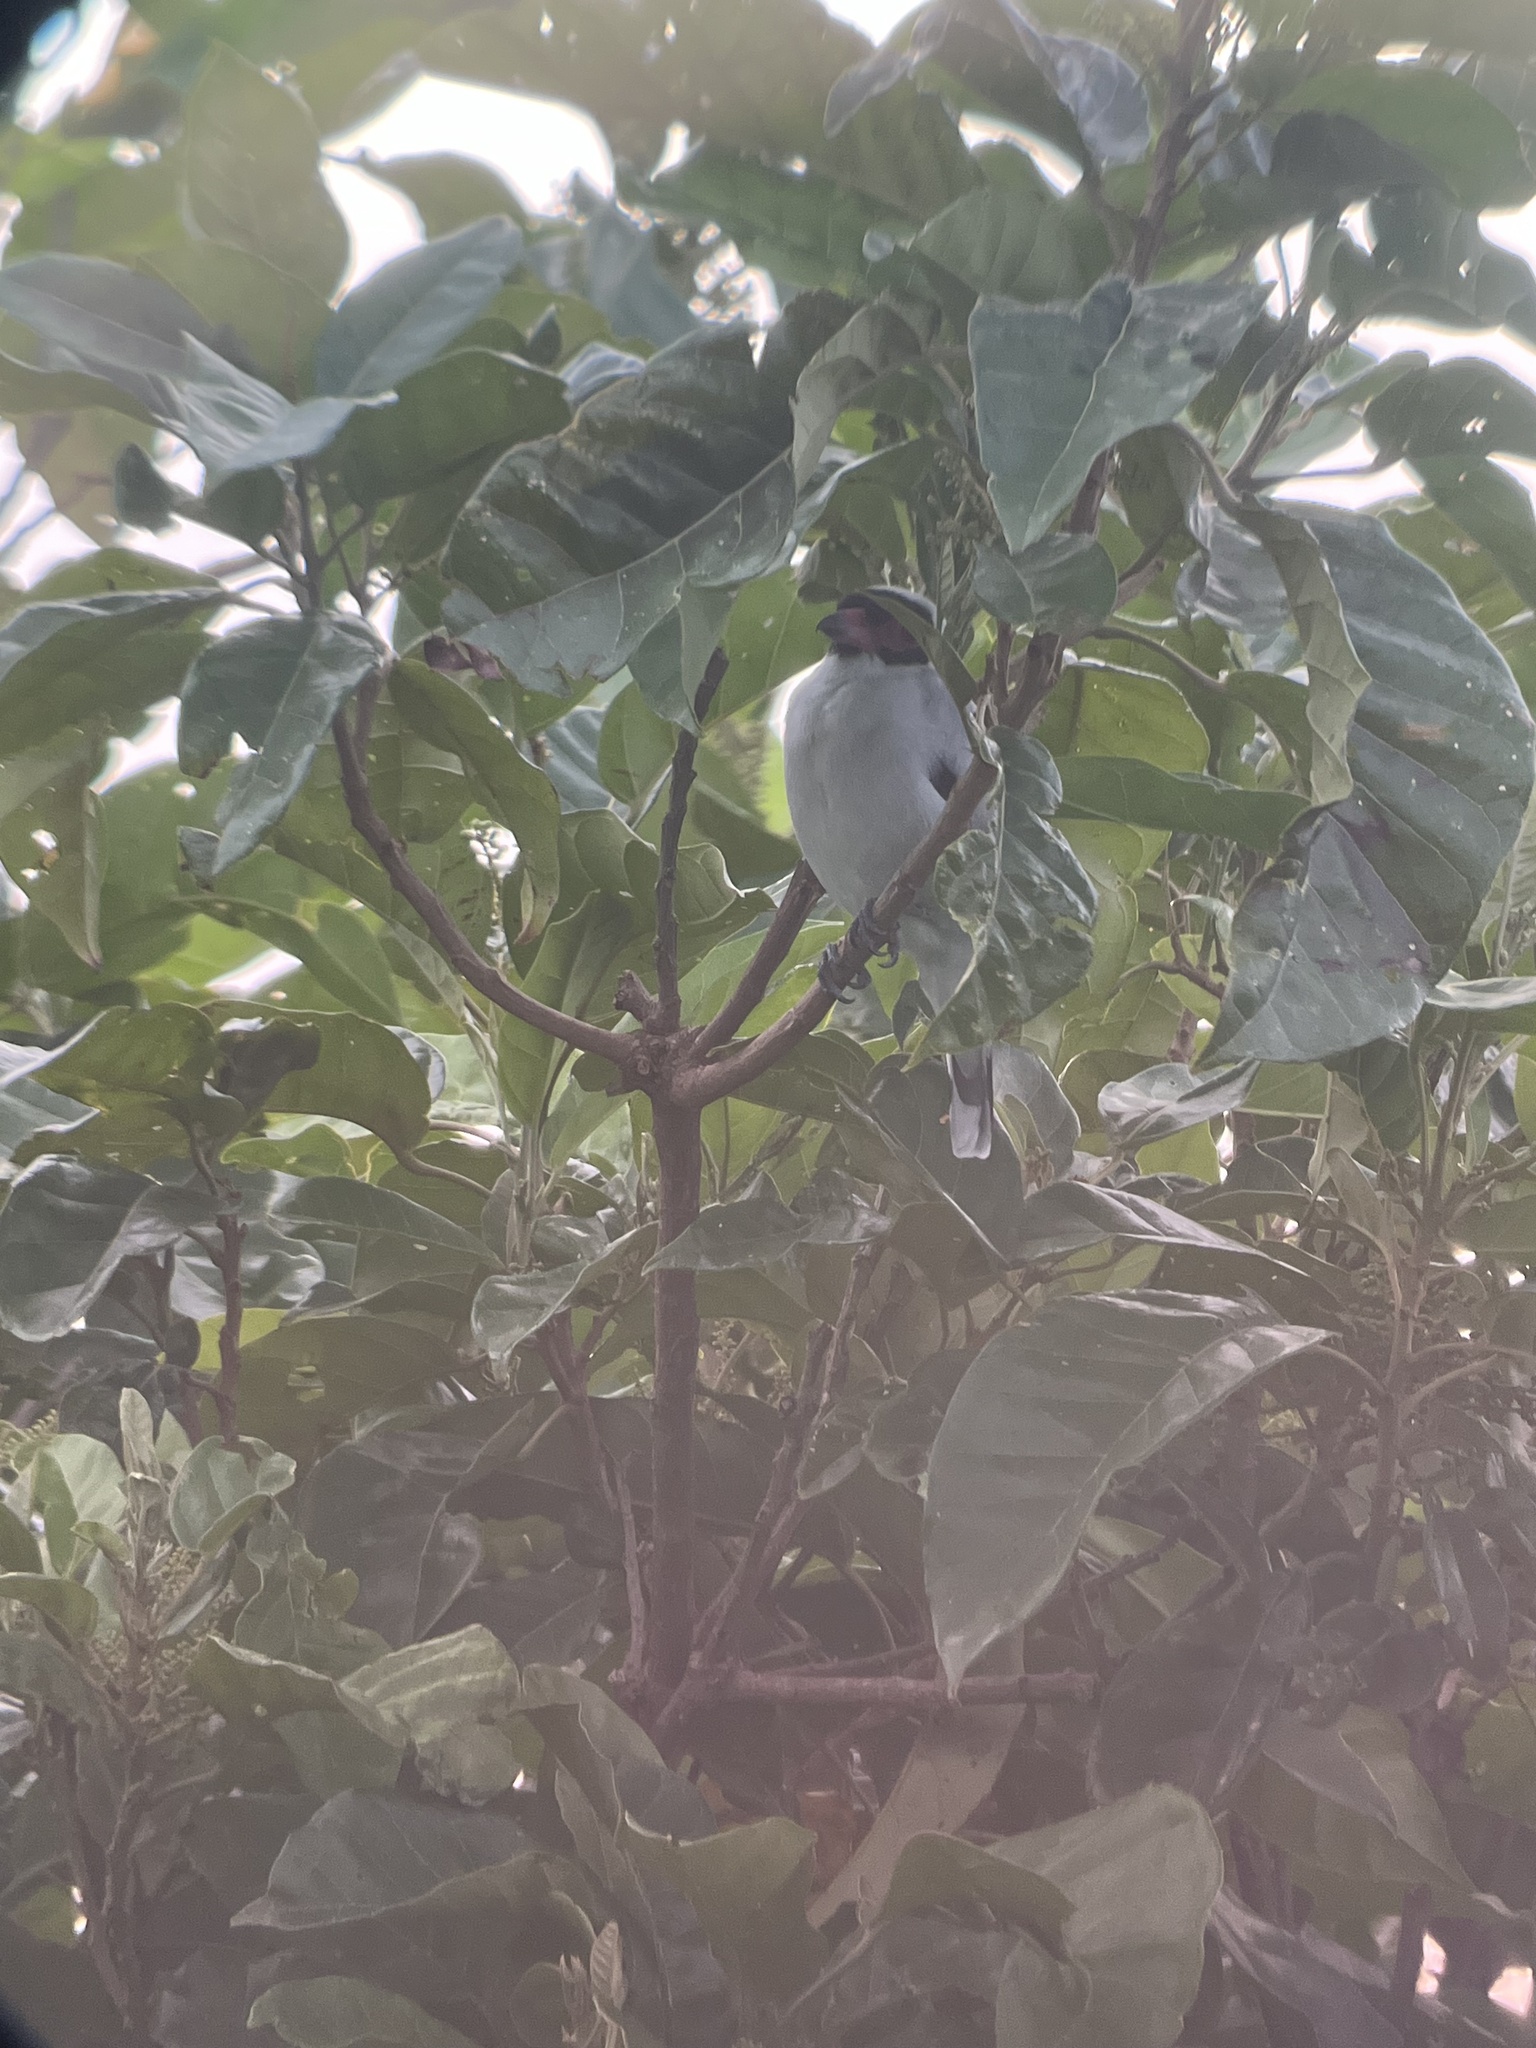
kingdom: Animalia
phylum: Chordata
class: Aves
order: Passeriformes
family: Cotingidae
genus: Tityra
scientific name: Tityra semifasciata
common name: Masked tityra
